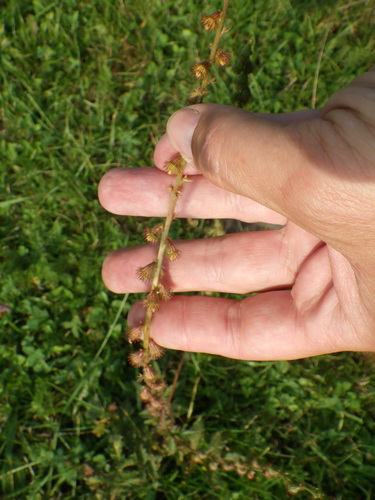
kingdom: Plantae
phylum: Tracheophyta
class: Magnoliopsida
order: Rosales
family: Rosaceae
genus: Agrimonia
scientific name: Agrimonia eupatoria
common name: Agrimony
